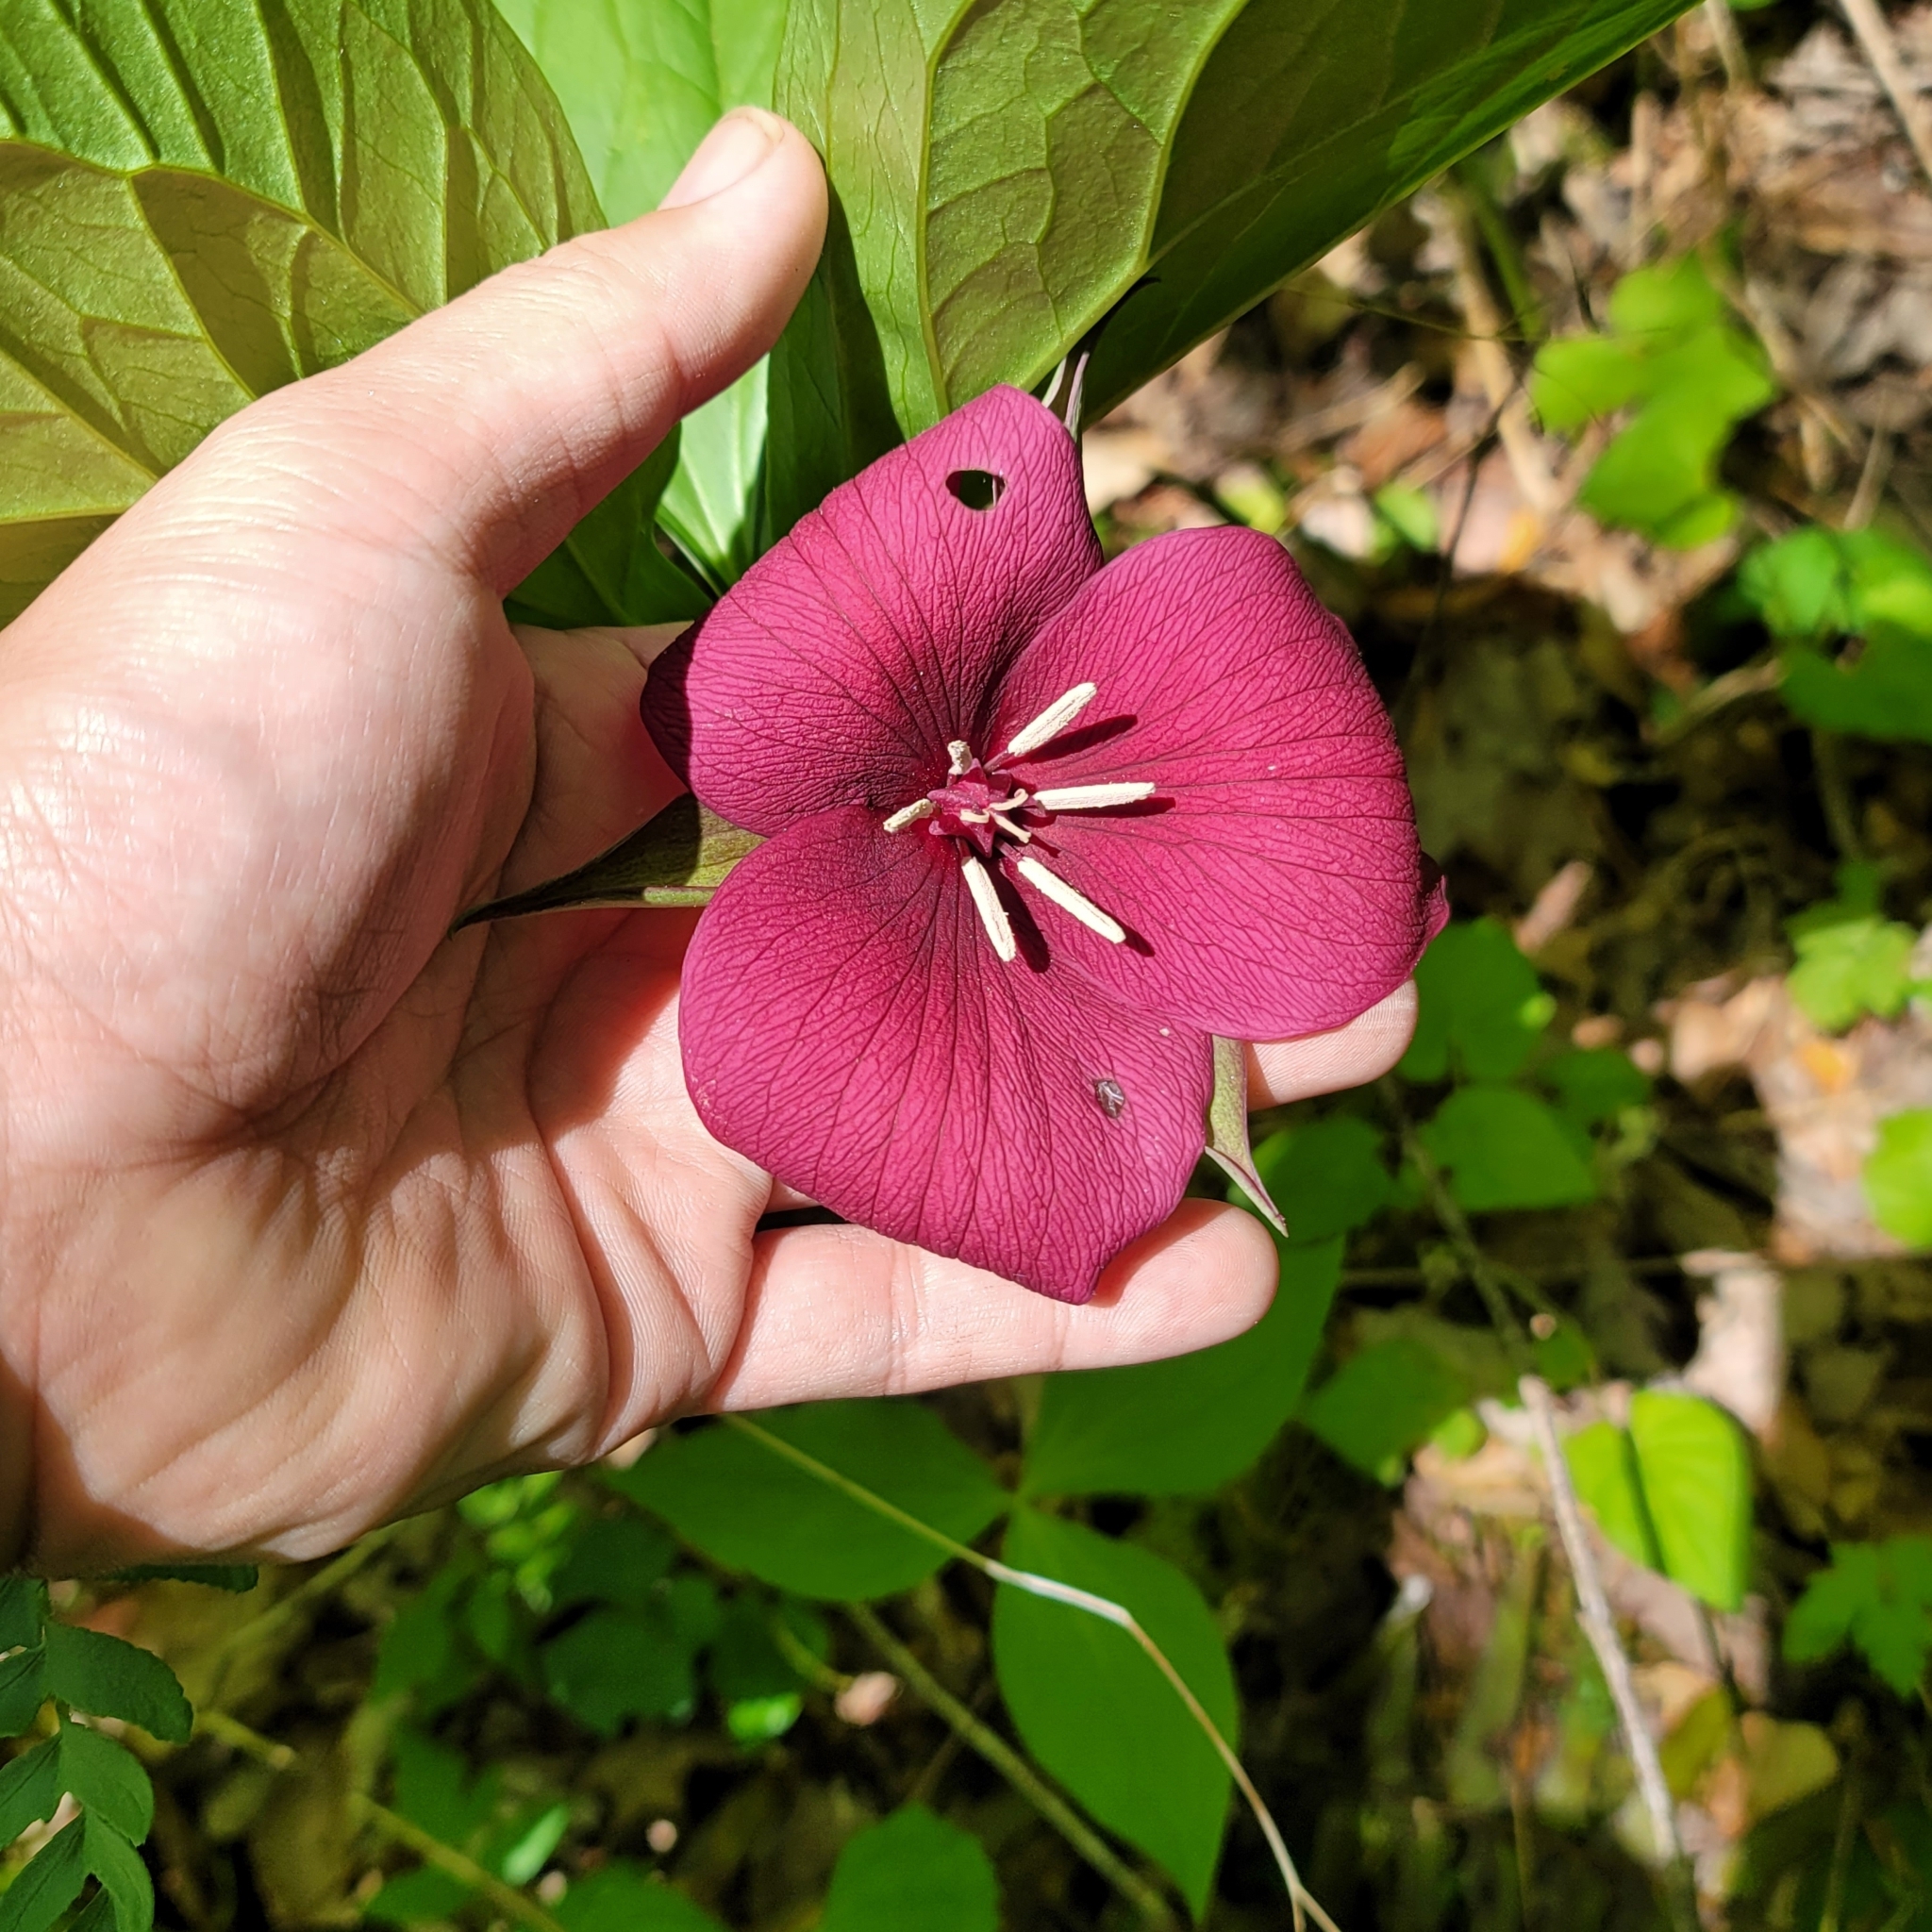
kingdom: Plantae
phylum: Tracheophyta
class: Liliopsida
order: Liliales
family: Melanthiaceae
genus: Trillium
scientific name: Trillium vaseyi
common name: Sweet trillium
